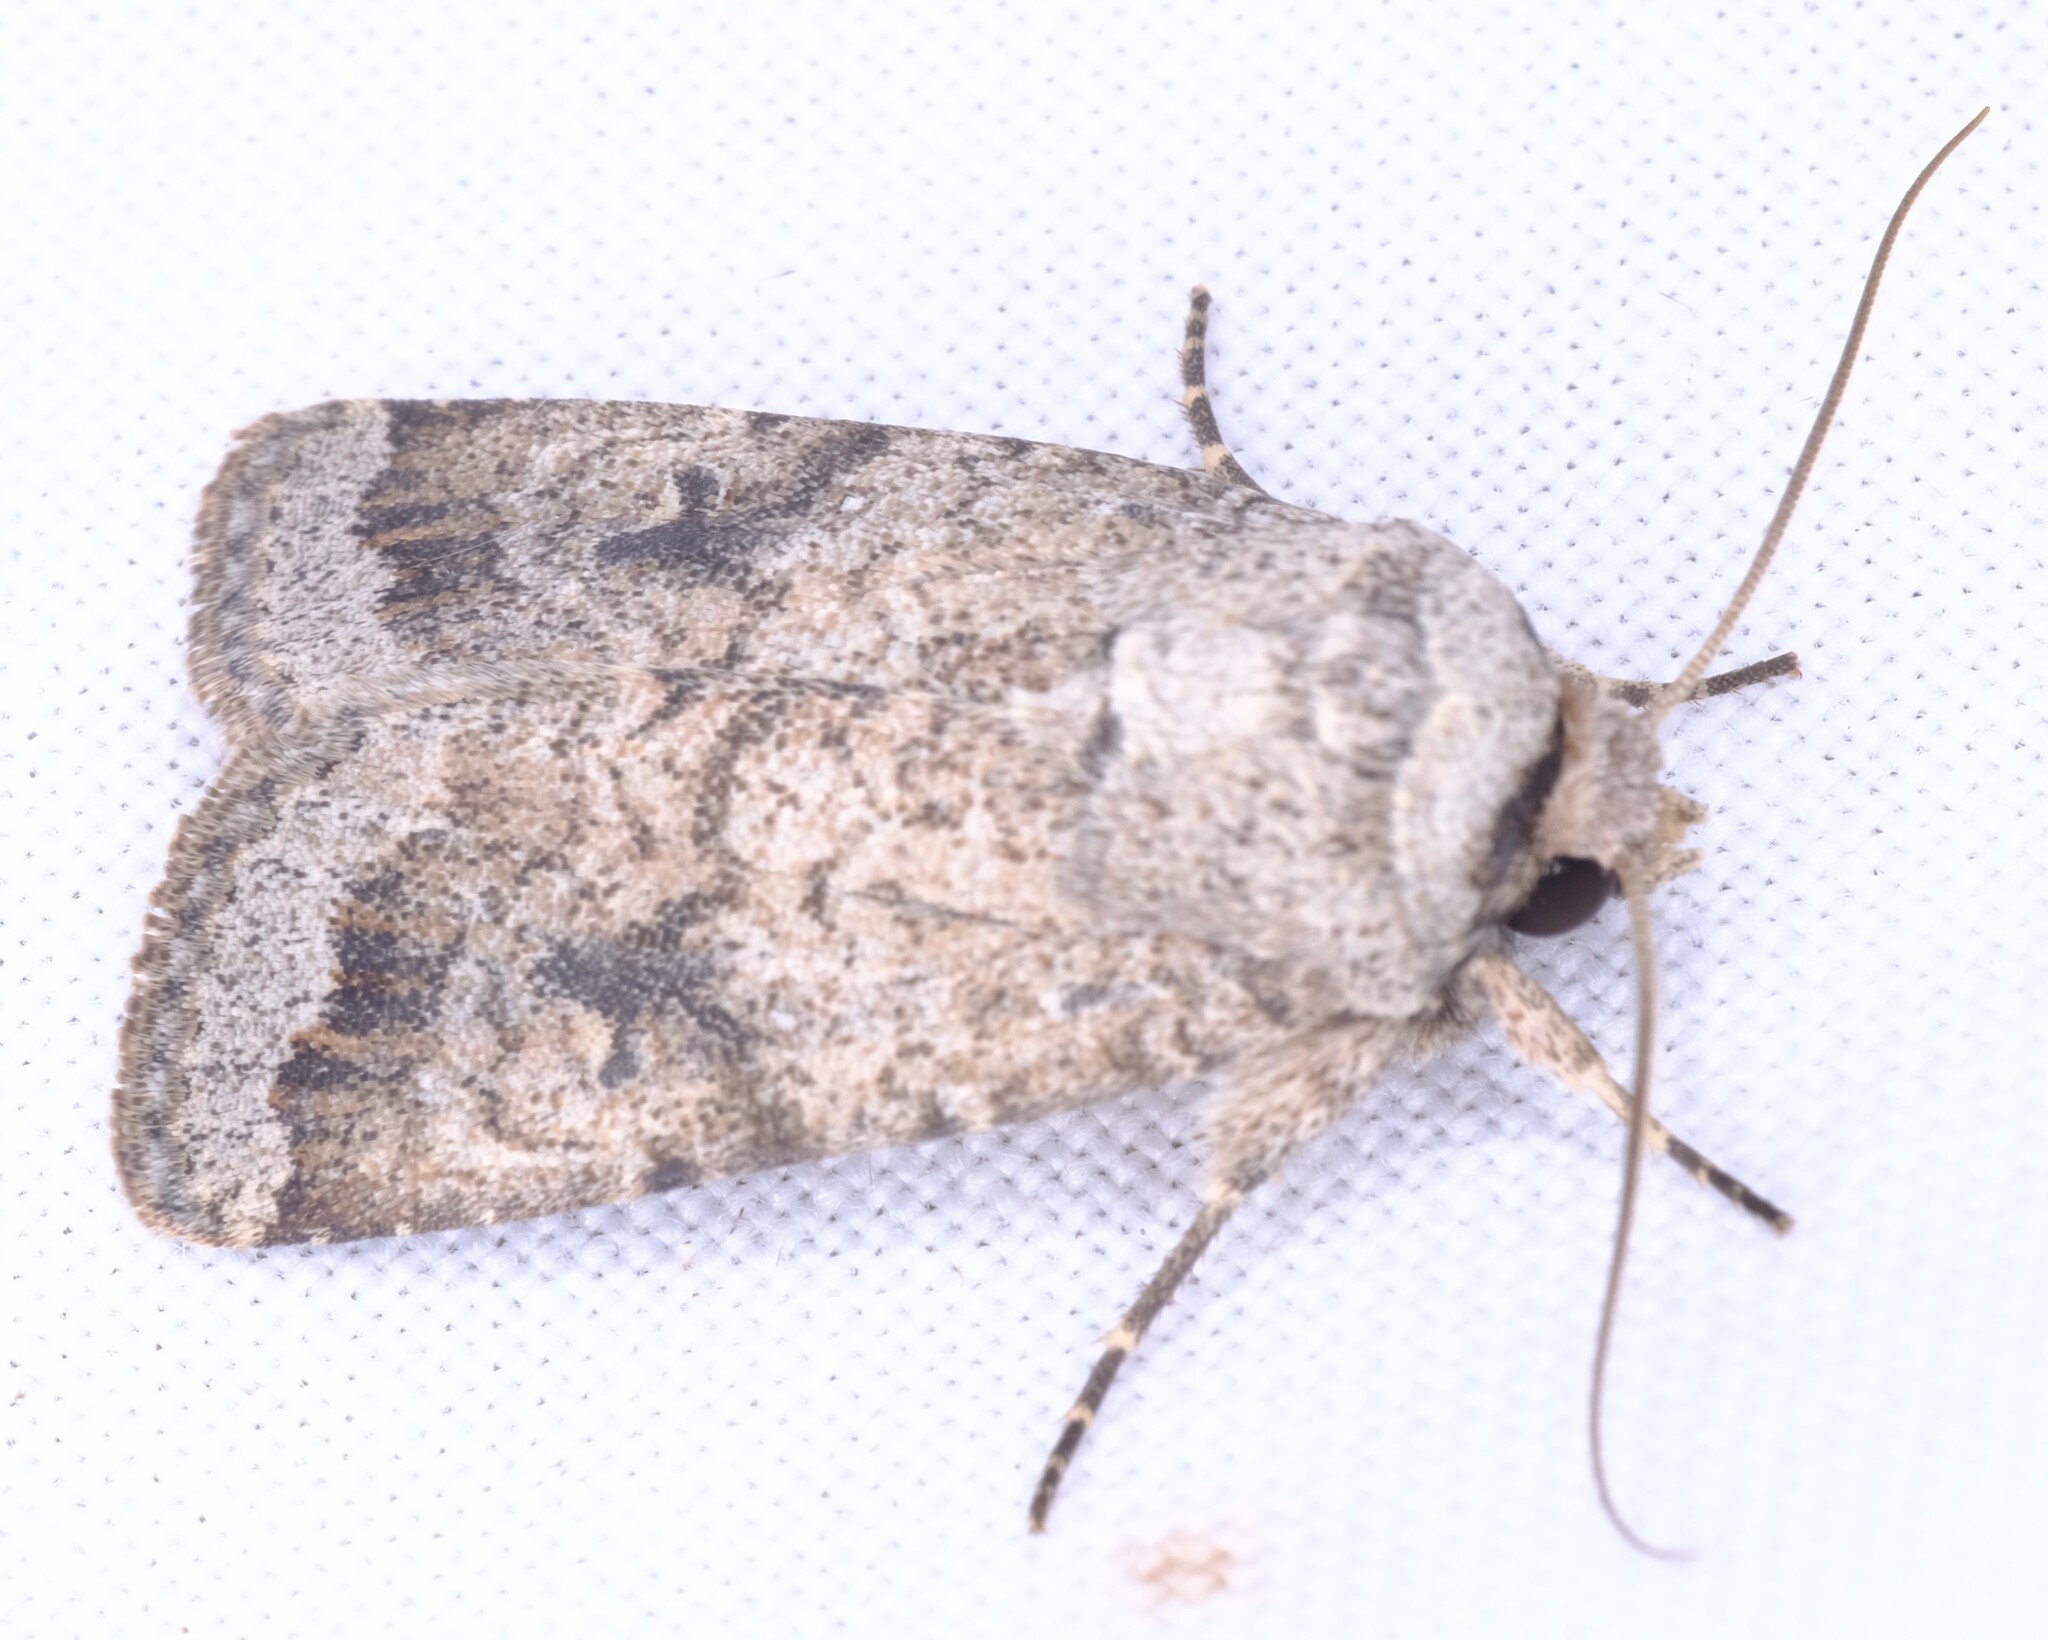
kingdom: Animalia
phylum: Arthropoda
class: Insecta
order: Lepidoptera
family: Noctuidae
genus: Proteuxoa
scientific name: Proteuxoa amaurodes
